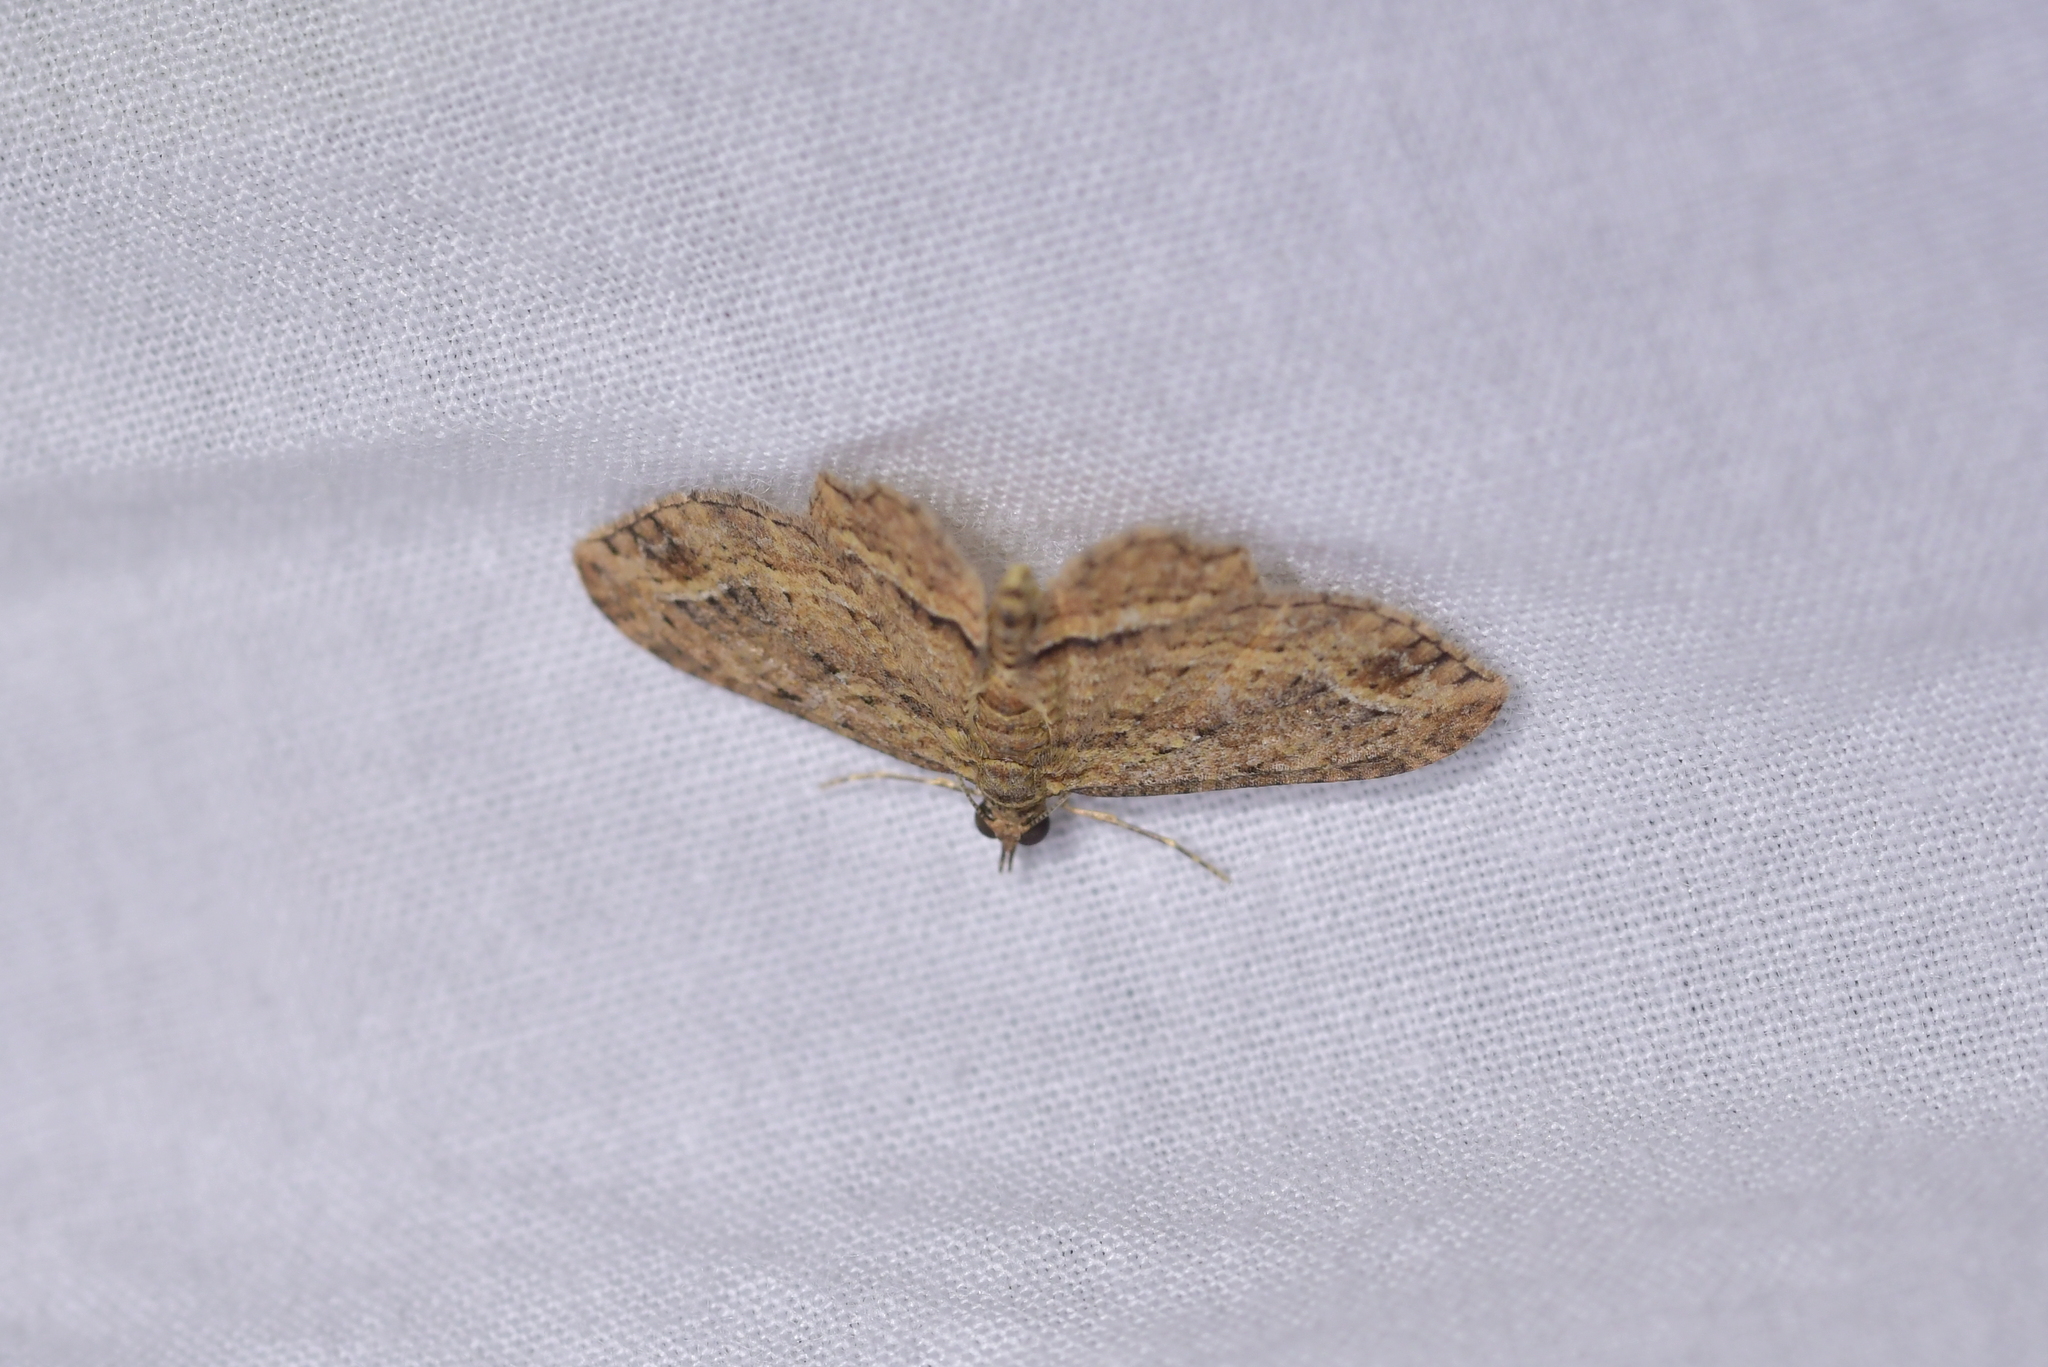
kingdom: Animalia
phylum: Arthropoda
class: Insecta
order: Lepidoptera
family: Geometridae
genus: Chloroclystis
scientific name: Chloroclystis filata
